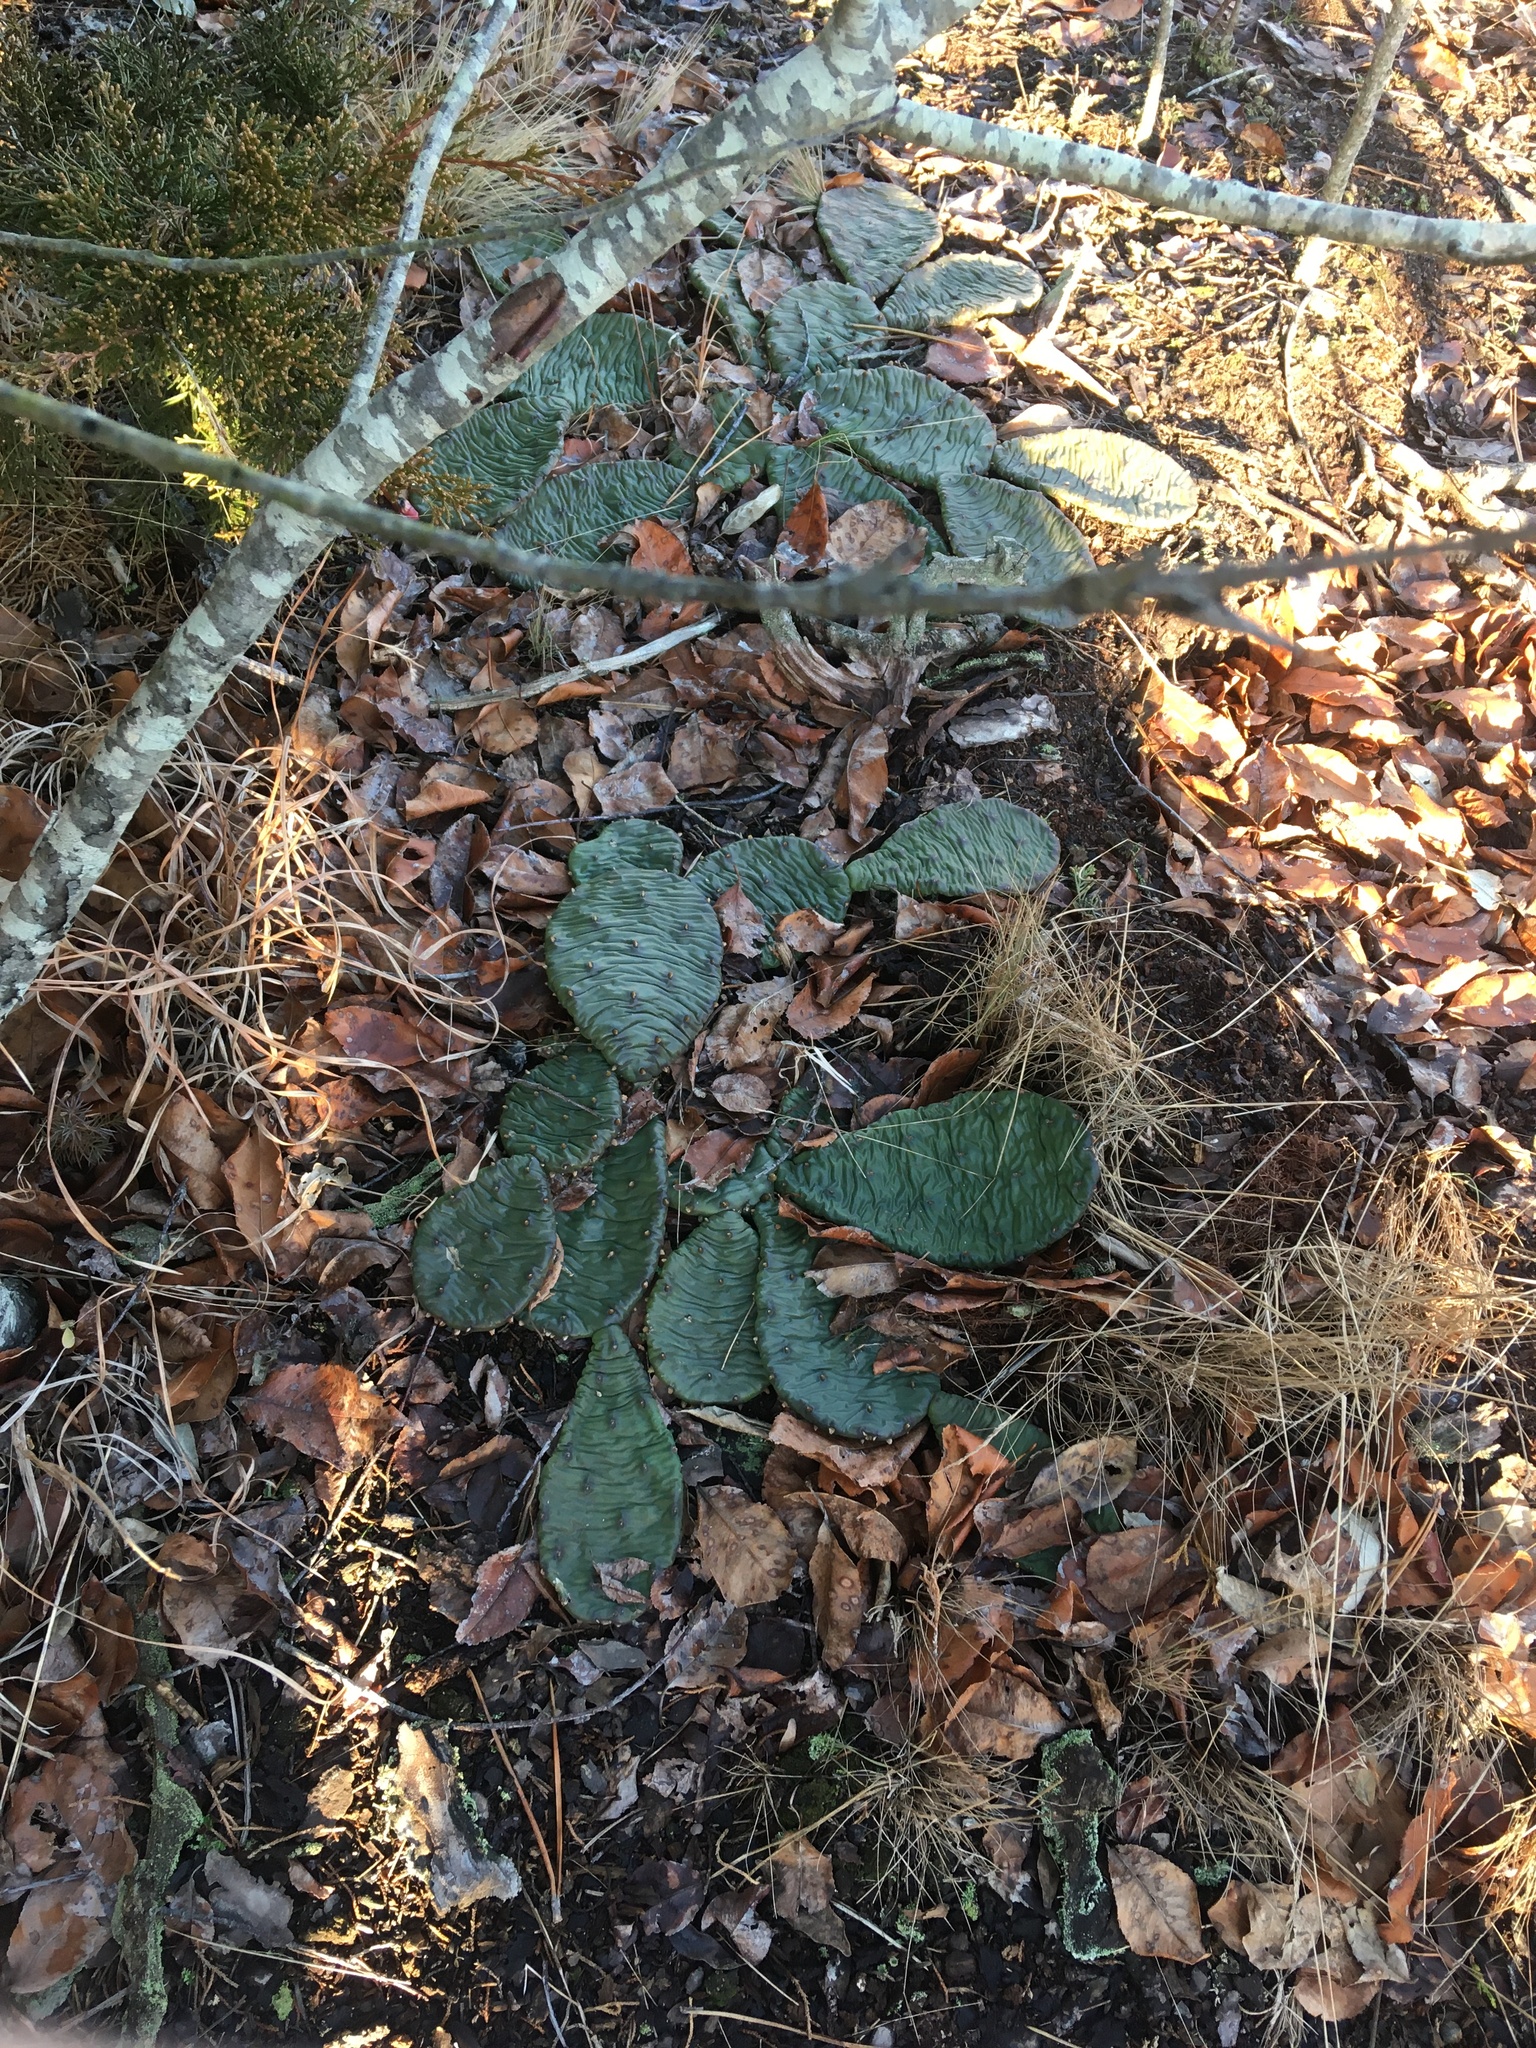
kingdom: Plantae
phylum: Tracheophyta
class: Magnoliopsida
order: Caryophyllales
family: Cactaceae
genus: Opuntia
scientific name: Opuntia humifusa
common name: Eastern prickly-pear
